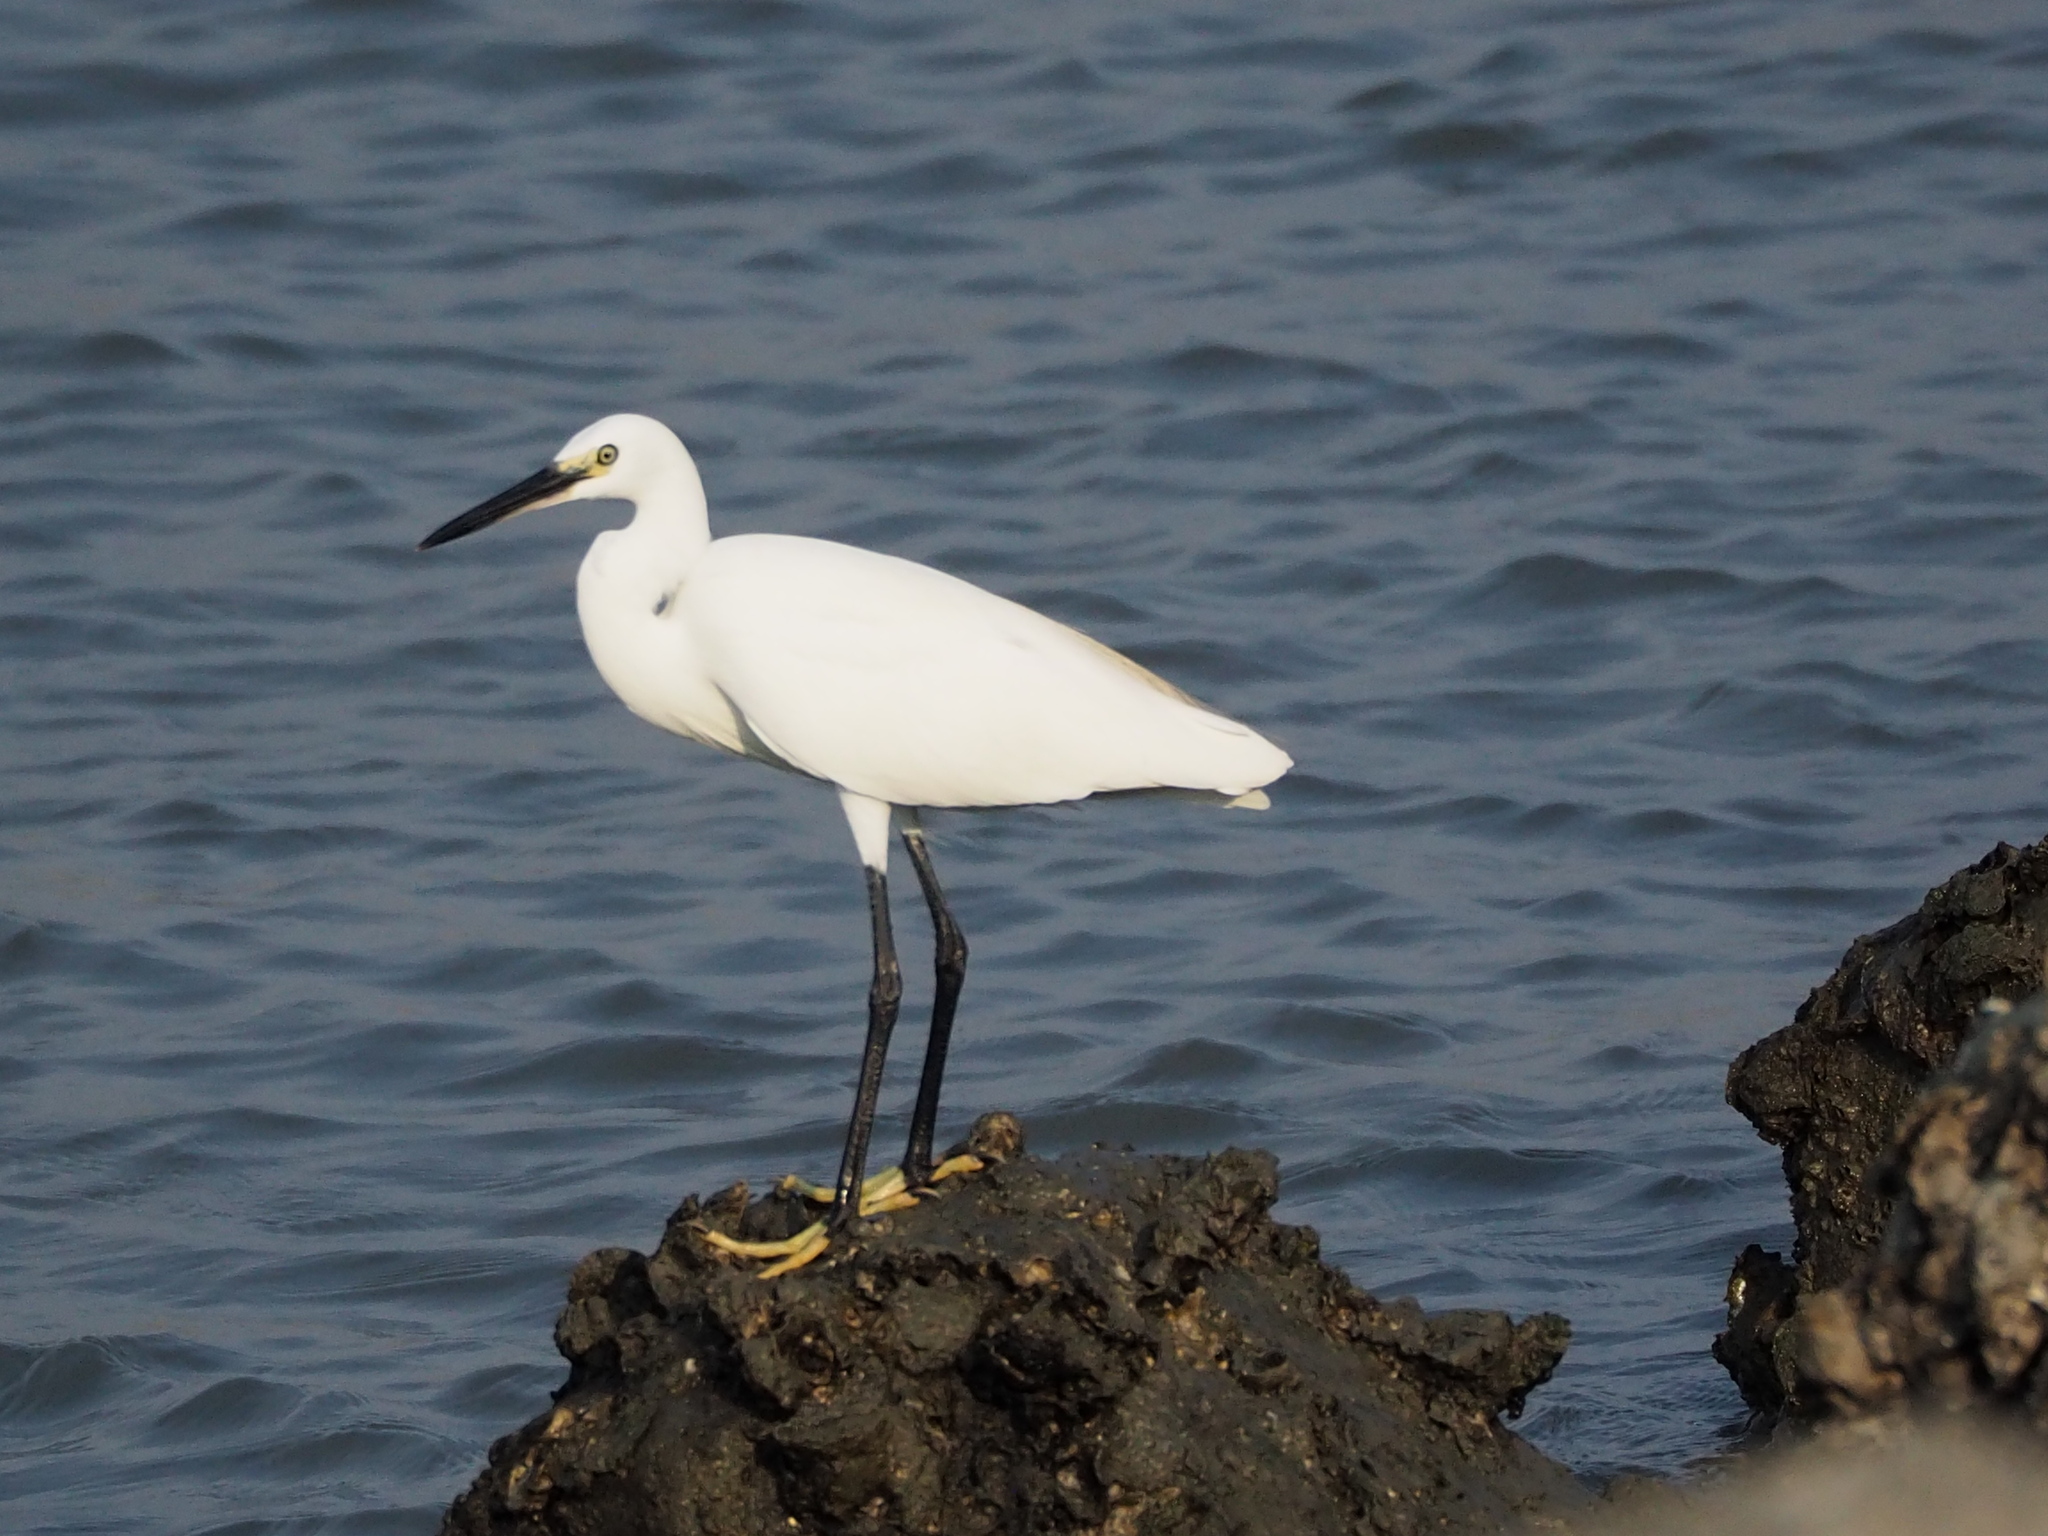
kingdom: Animalia
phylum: Chordata
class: Aves
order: Pelecaniformes
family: Ardeidae
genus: Egretta
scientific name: Egretta garzetta
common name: Little egret
